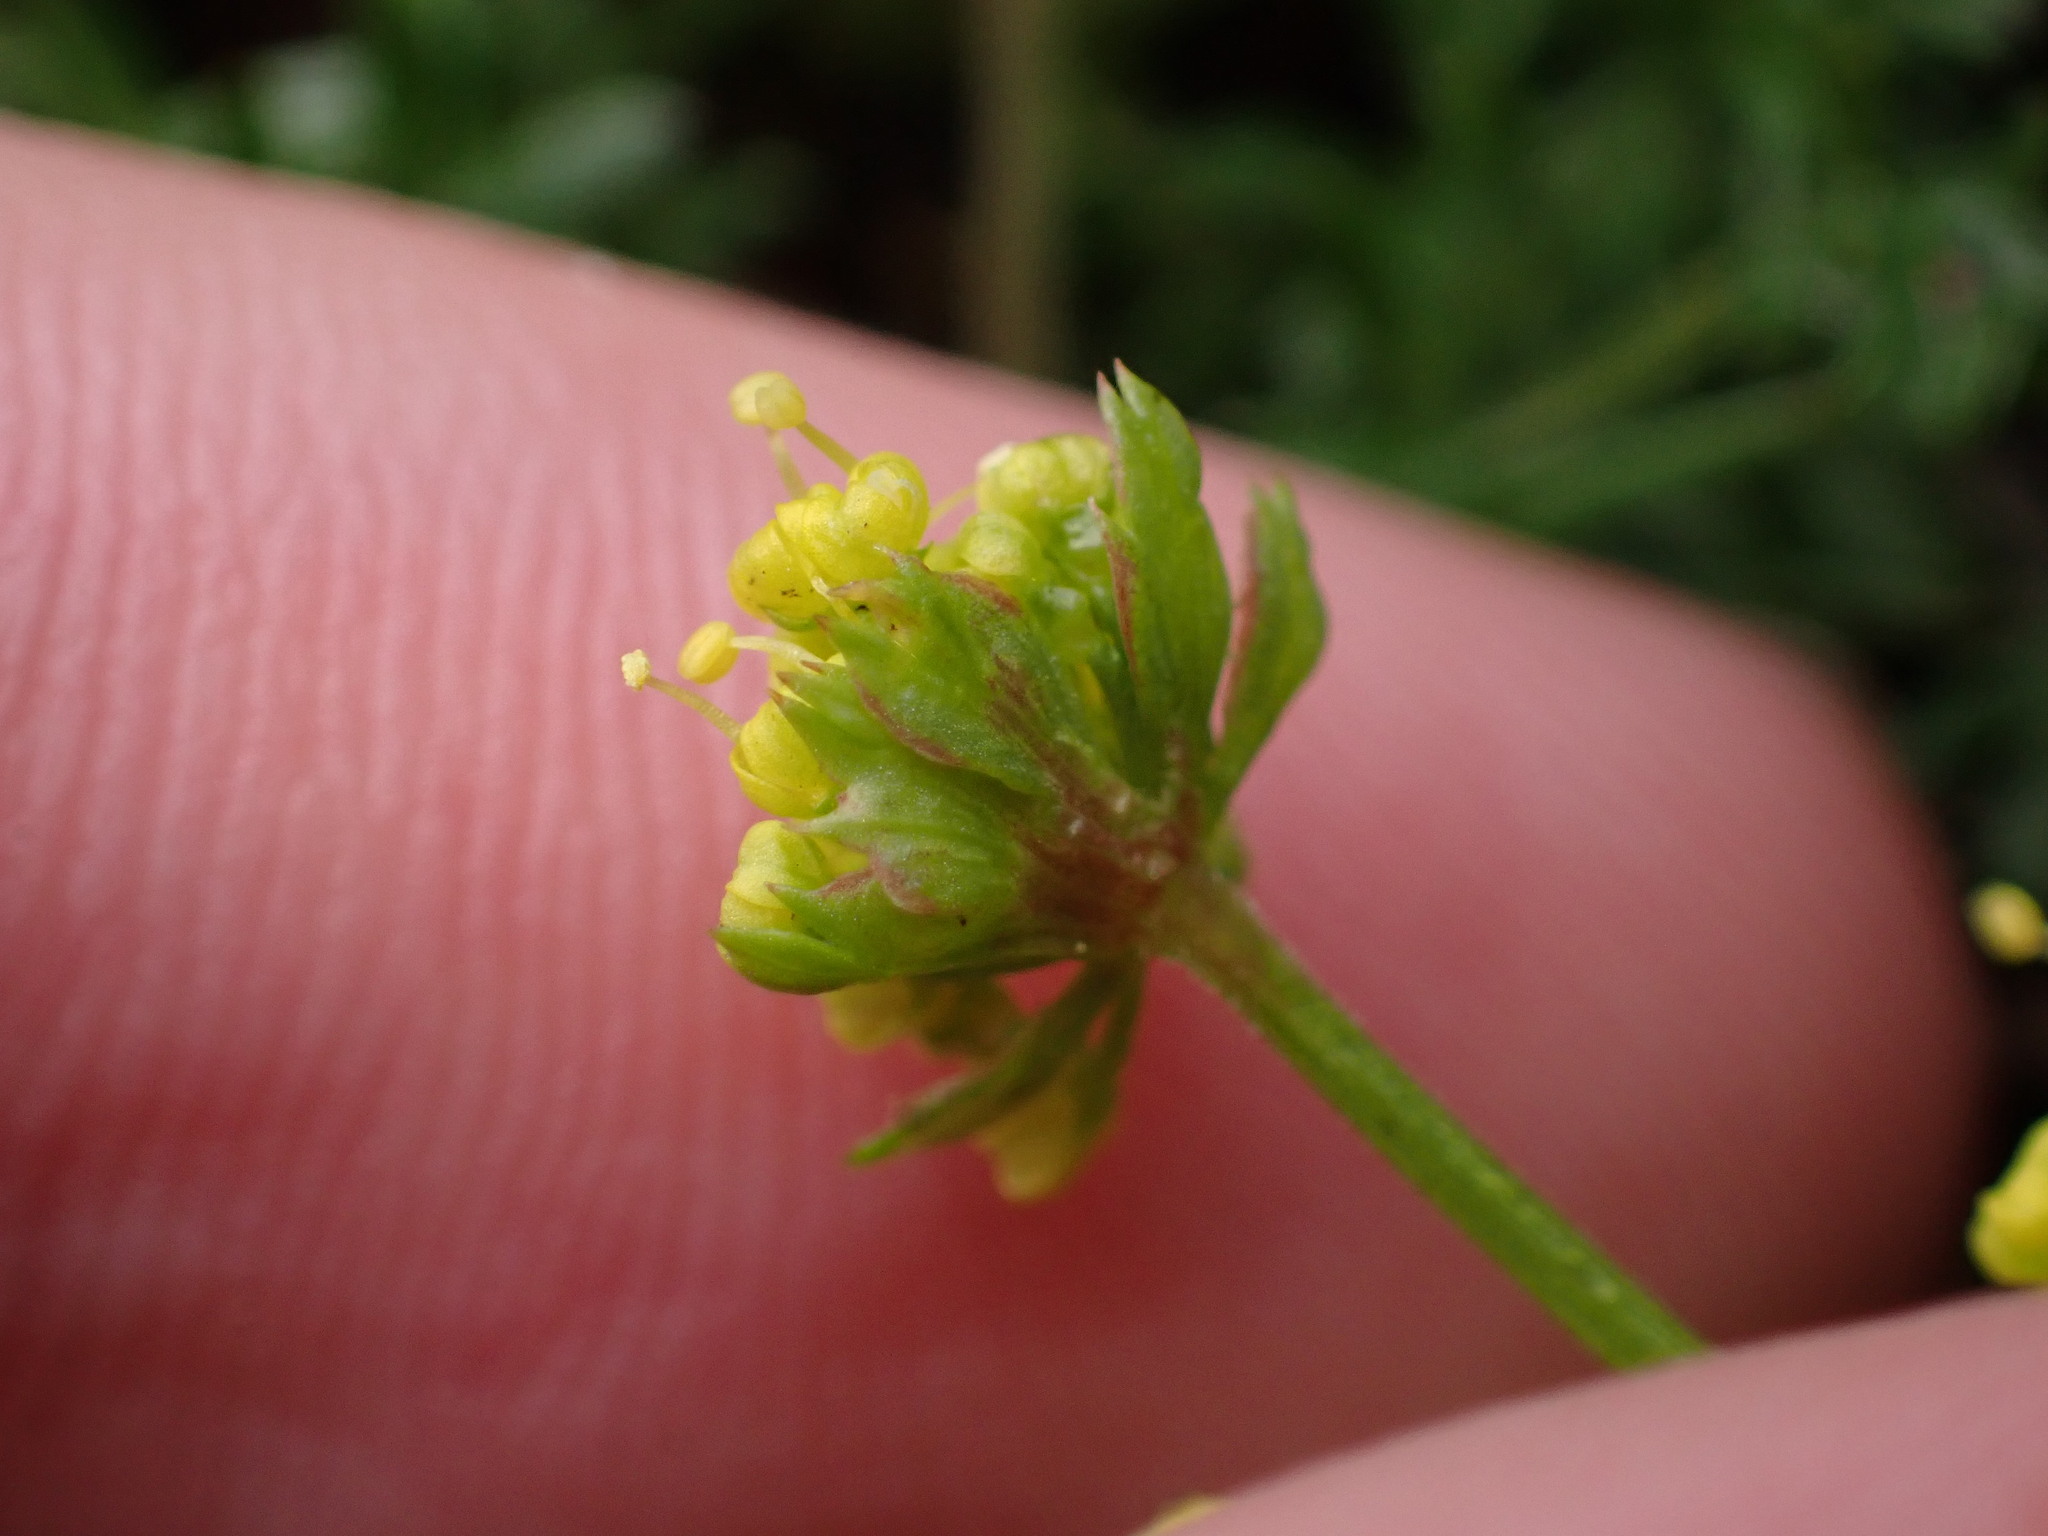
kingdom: Plantae
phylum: Tracheophyta
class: Magnoliopsida
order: Apiales
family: Apiaceae
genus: Lomatium
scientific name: Lomatium utriculatum
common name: Fine-leaf desert-parsley
